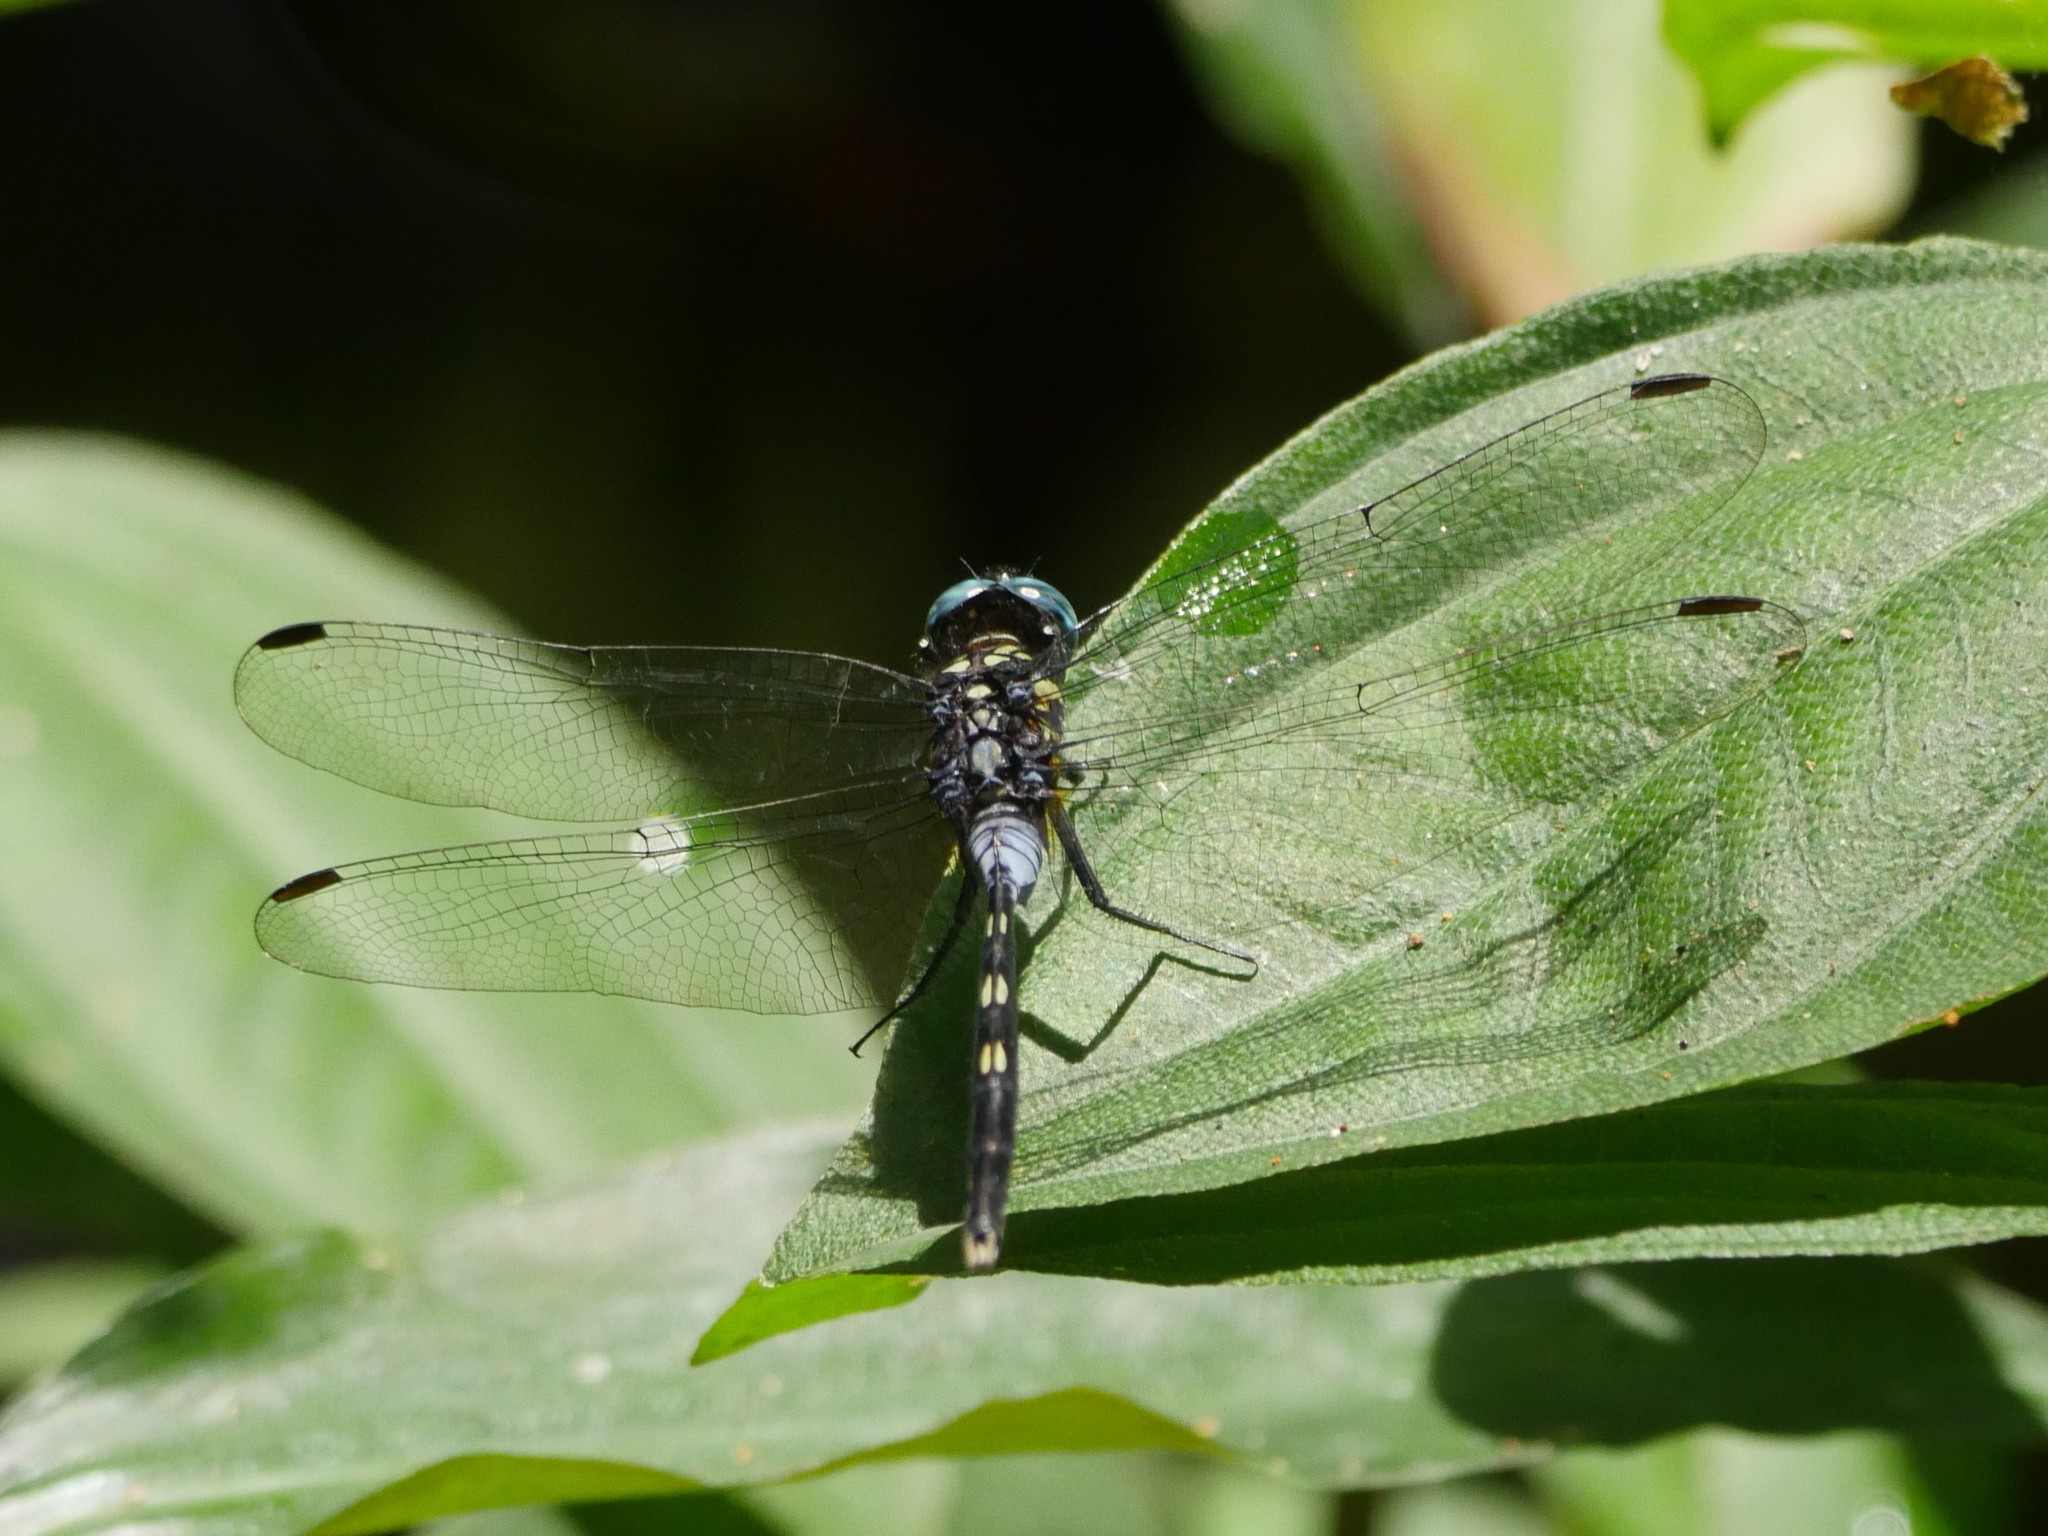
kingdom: Animalia
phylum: Arthropoda
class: Insecta
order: Odonata
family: Libellulidae
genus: Trithemis
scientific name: Trithemis stictica
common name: Jaunty dropwing
